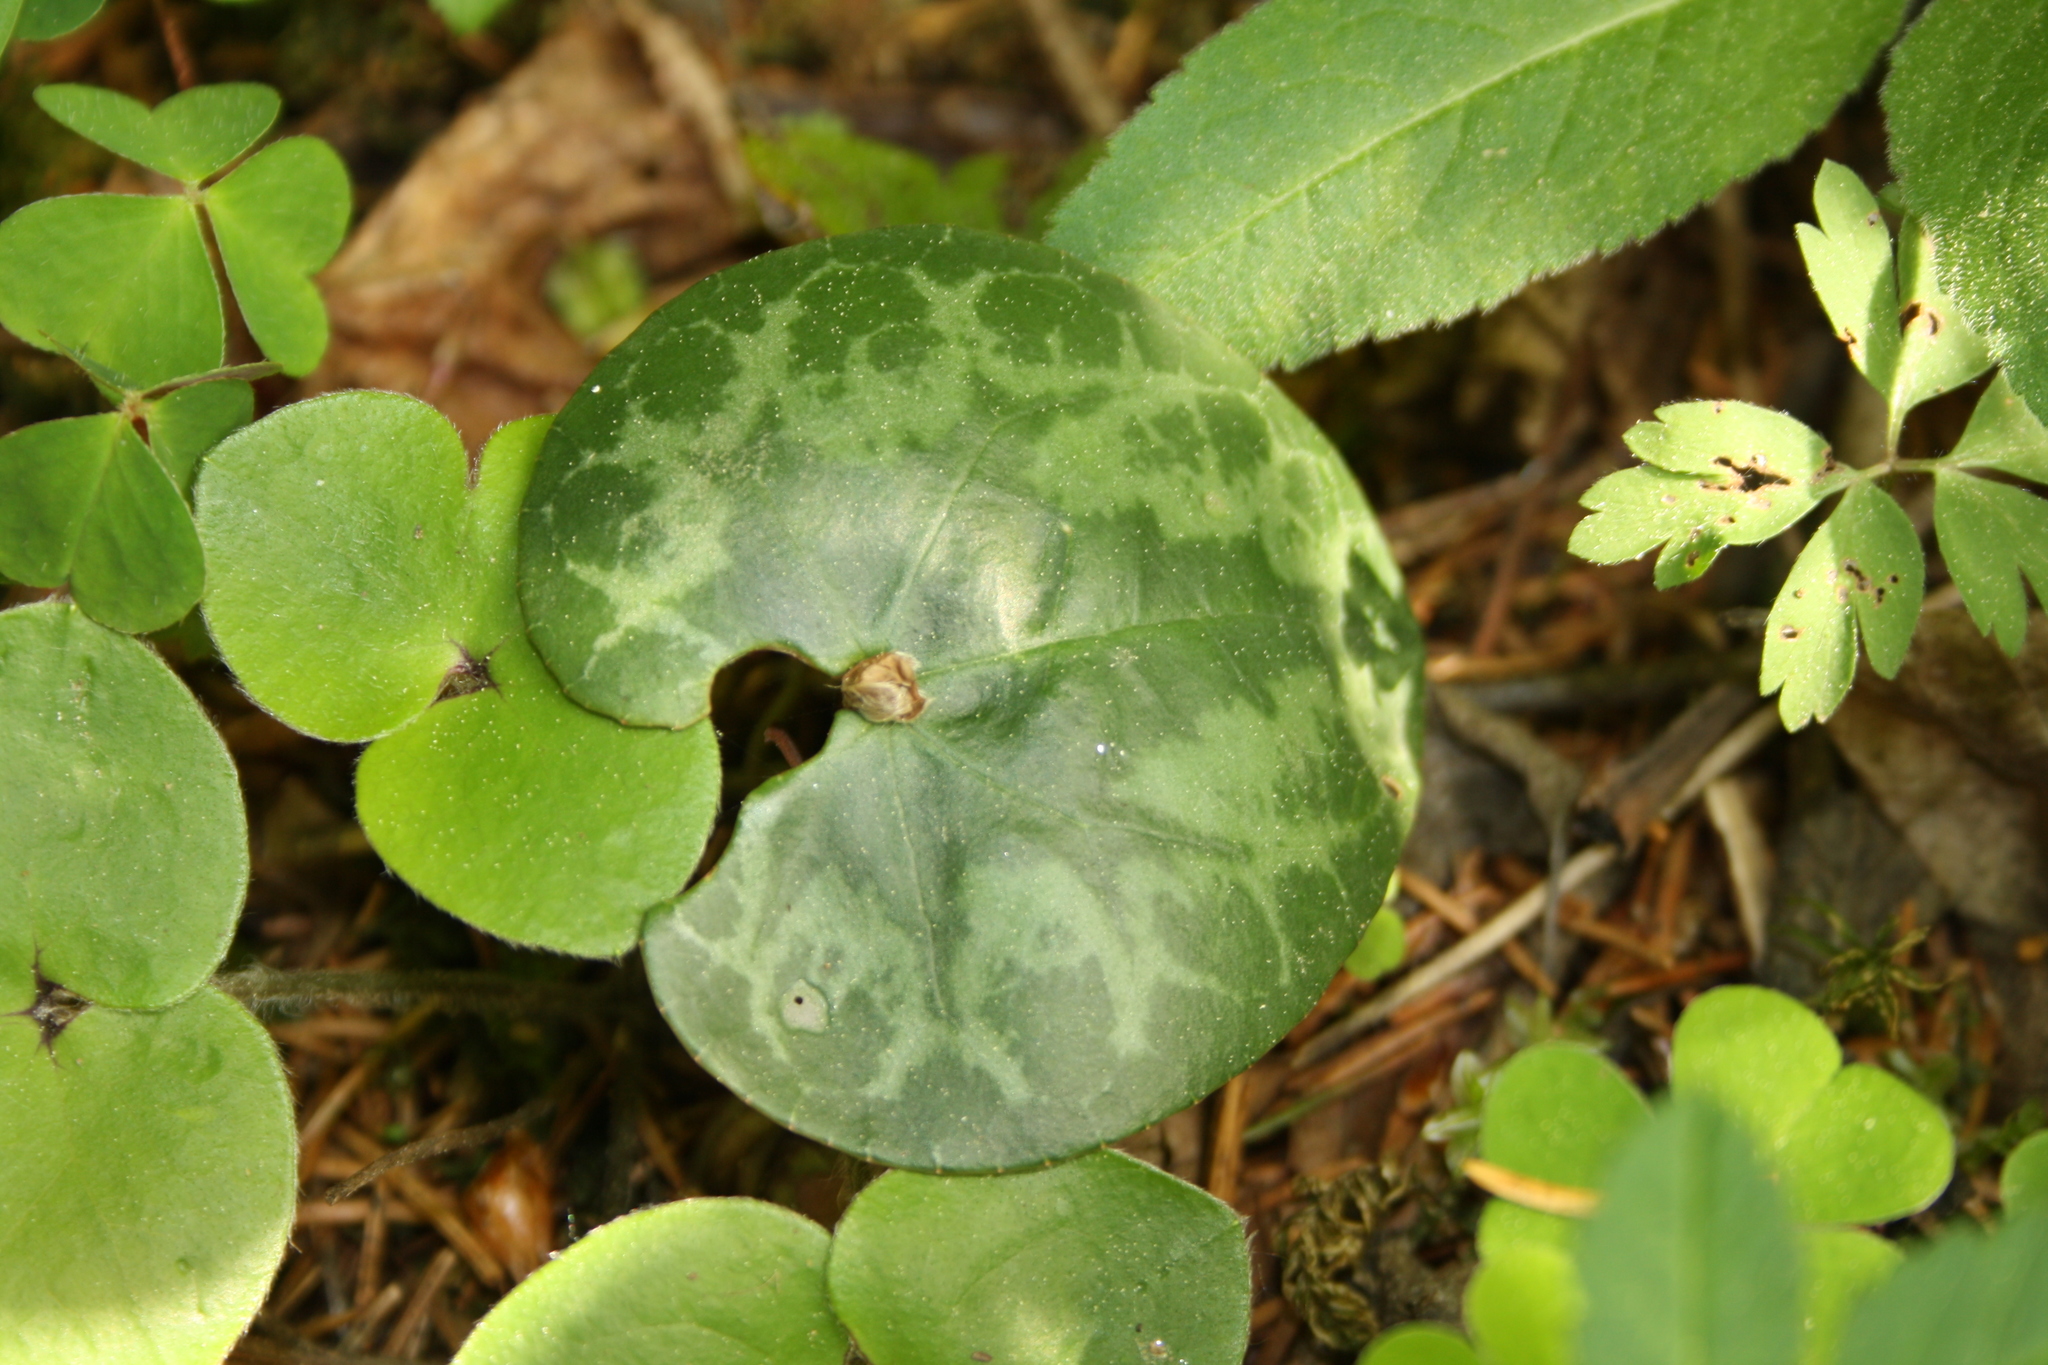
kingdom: Plantae
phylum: Tracheophyta
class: Magnoliopsida
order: Ericales
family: Primulaceae
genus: Cyclamen
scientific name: Cyclamen purpurascens
